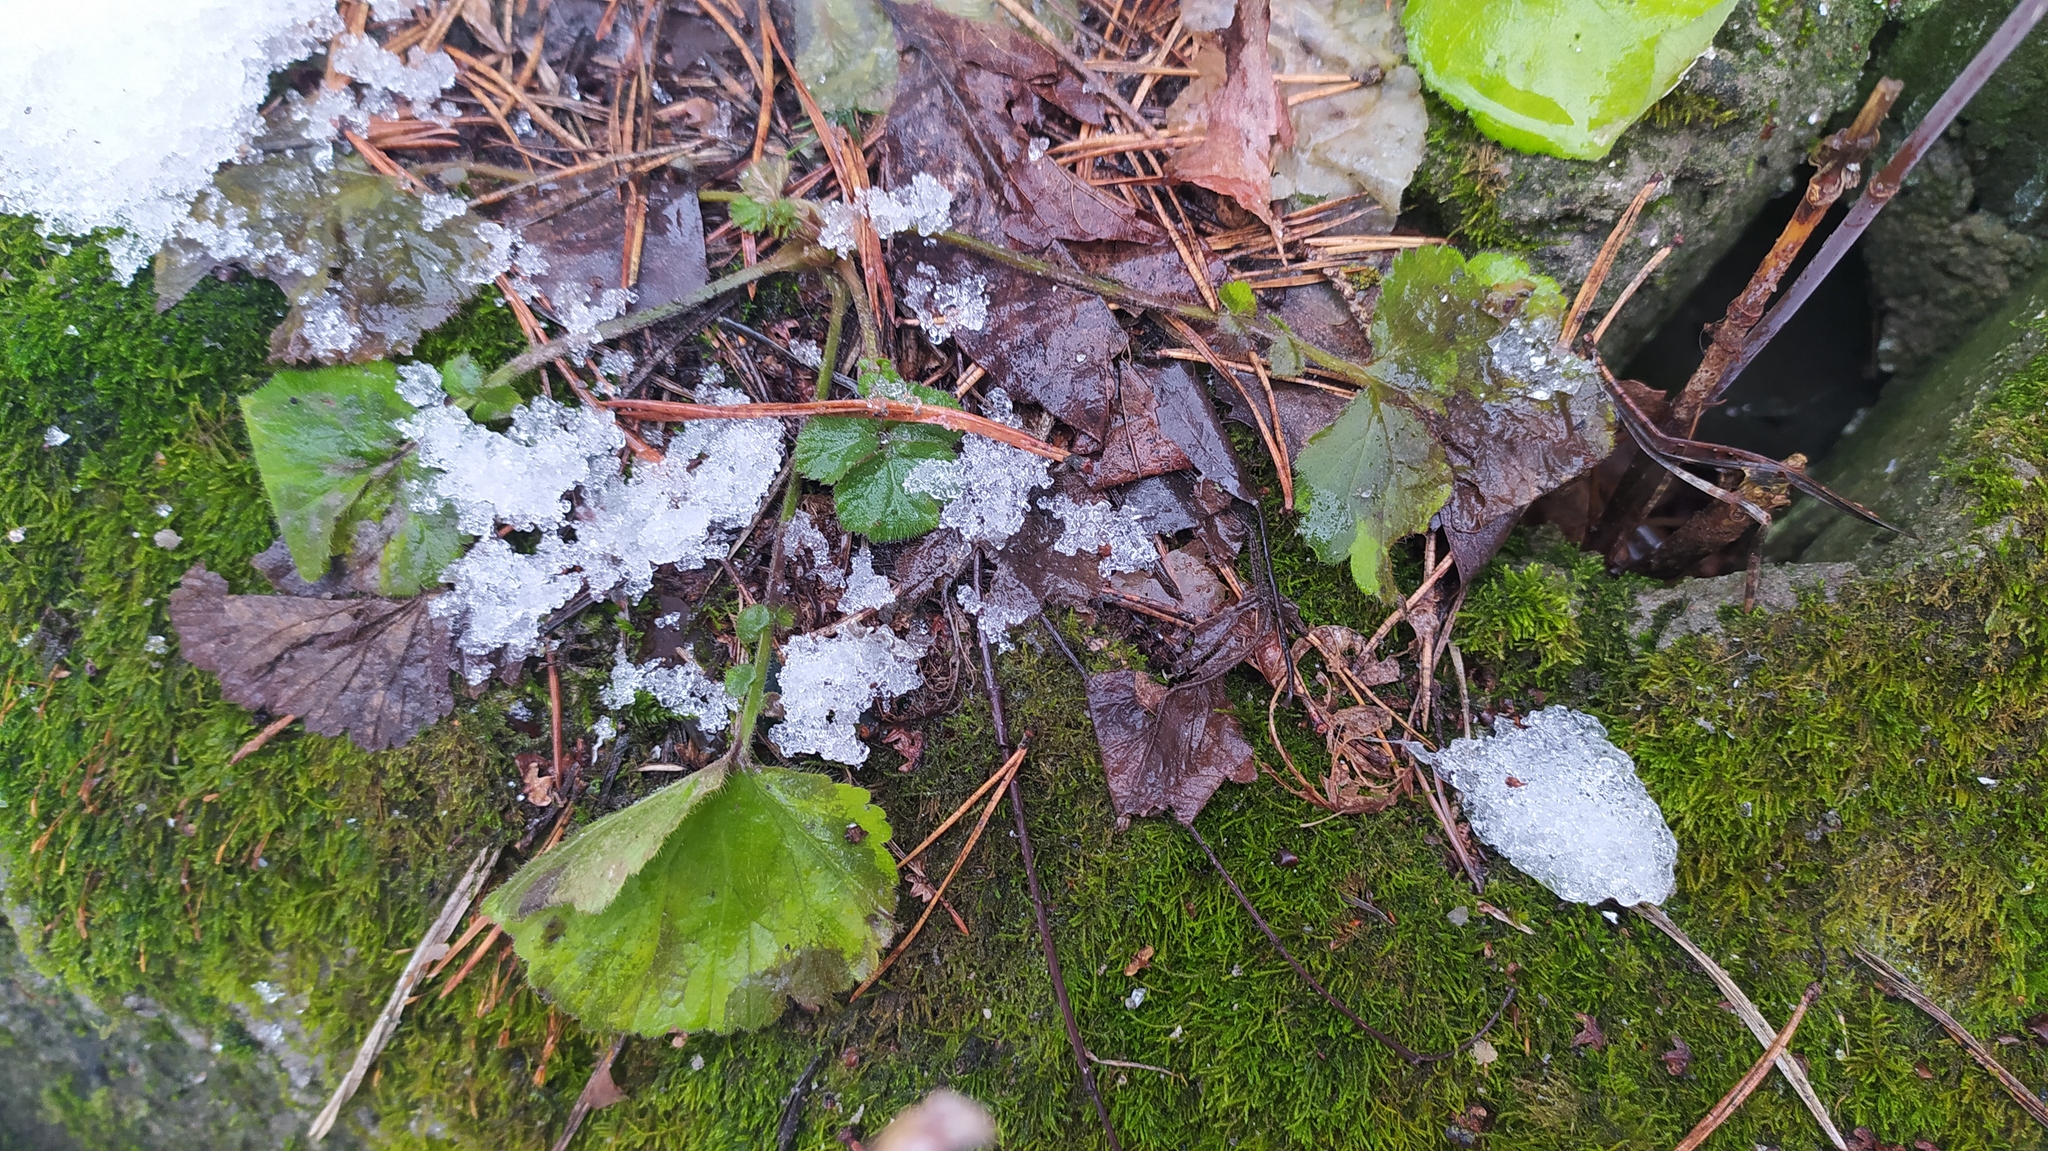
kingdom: Plantae
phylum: Tracheophyta
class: Magnoliopsida
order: Rosales
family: Rosaceae
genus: Geum
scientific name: Geum
